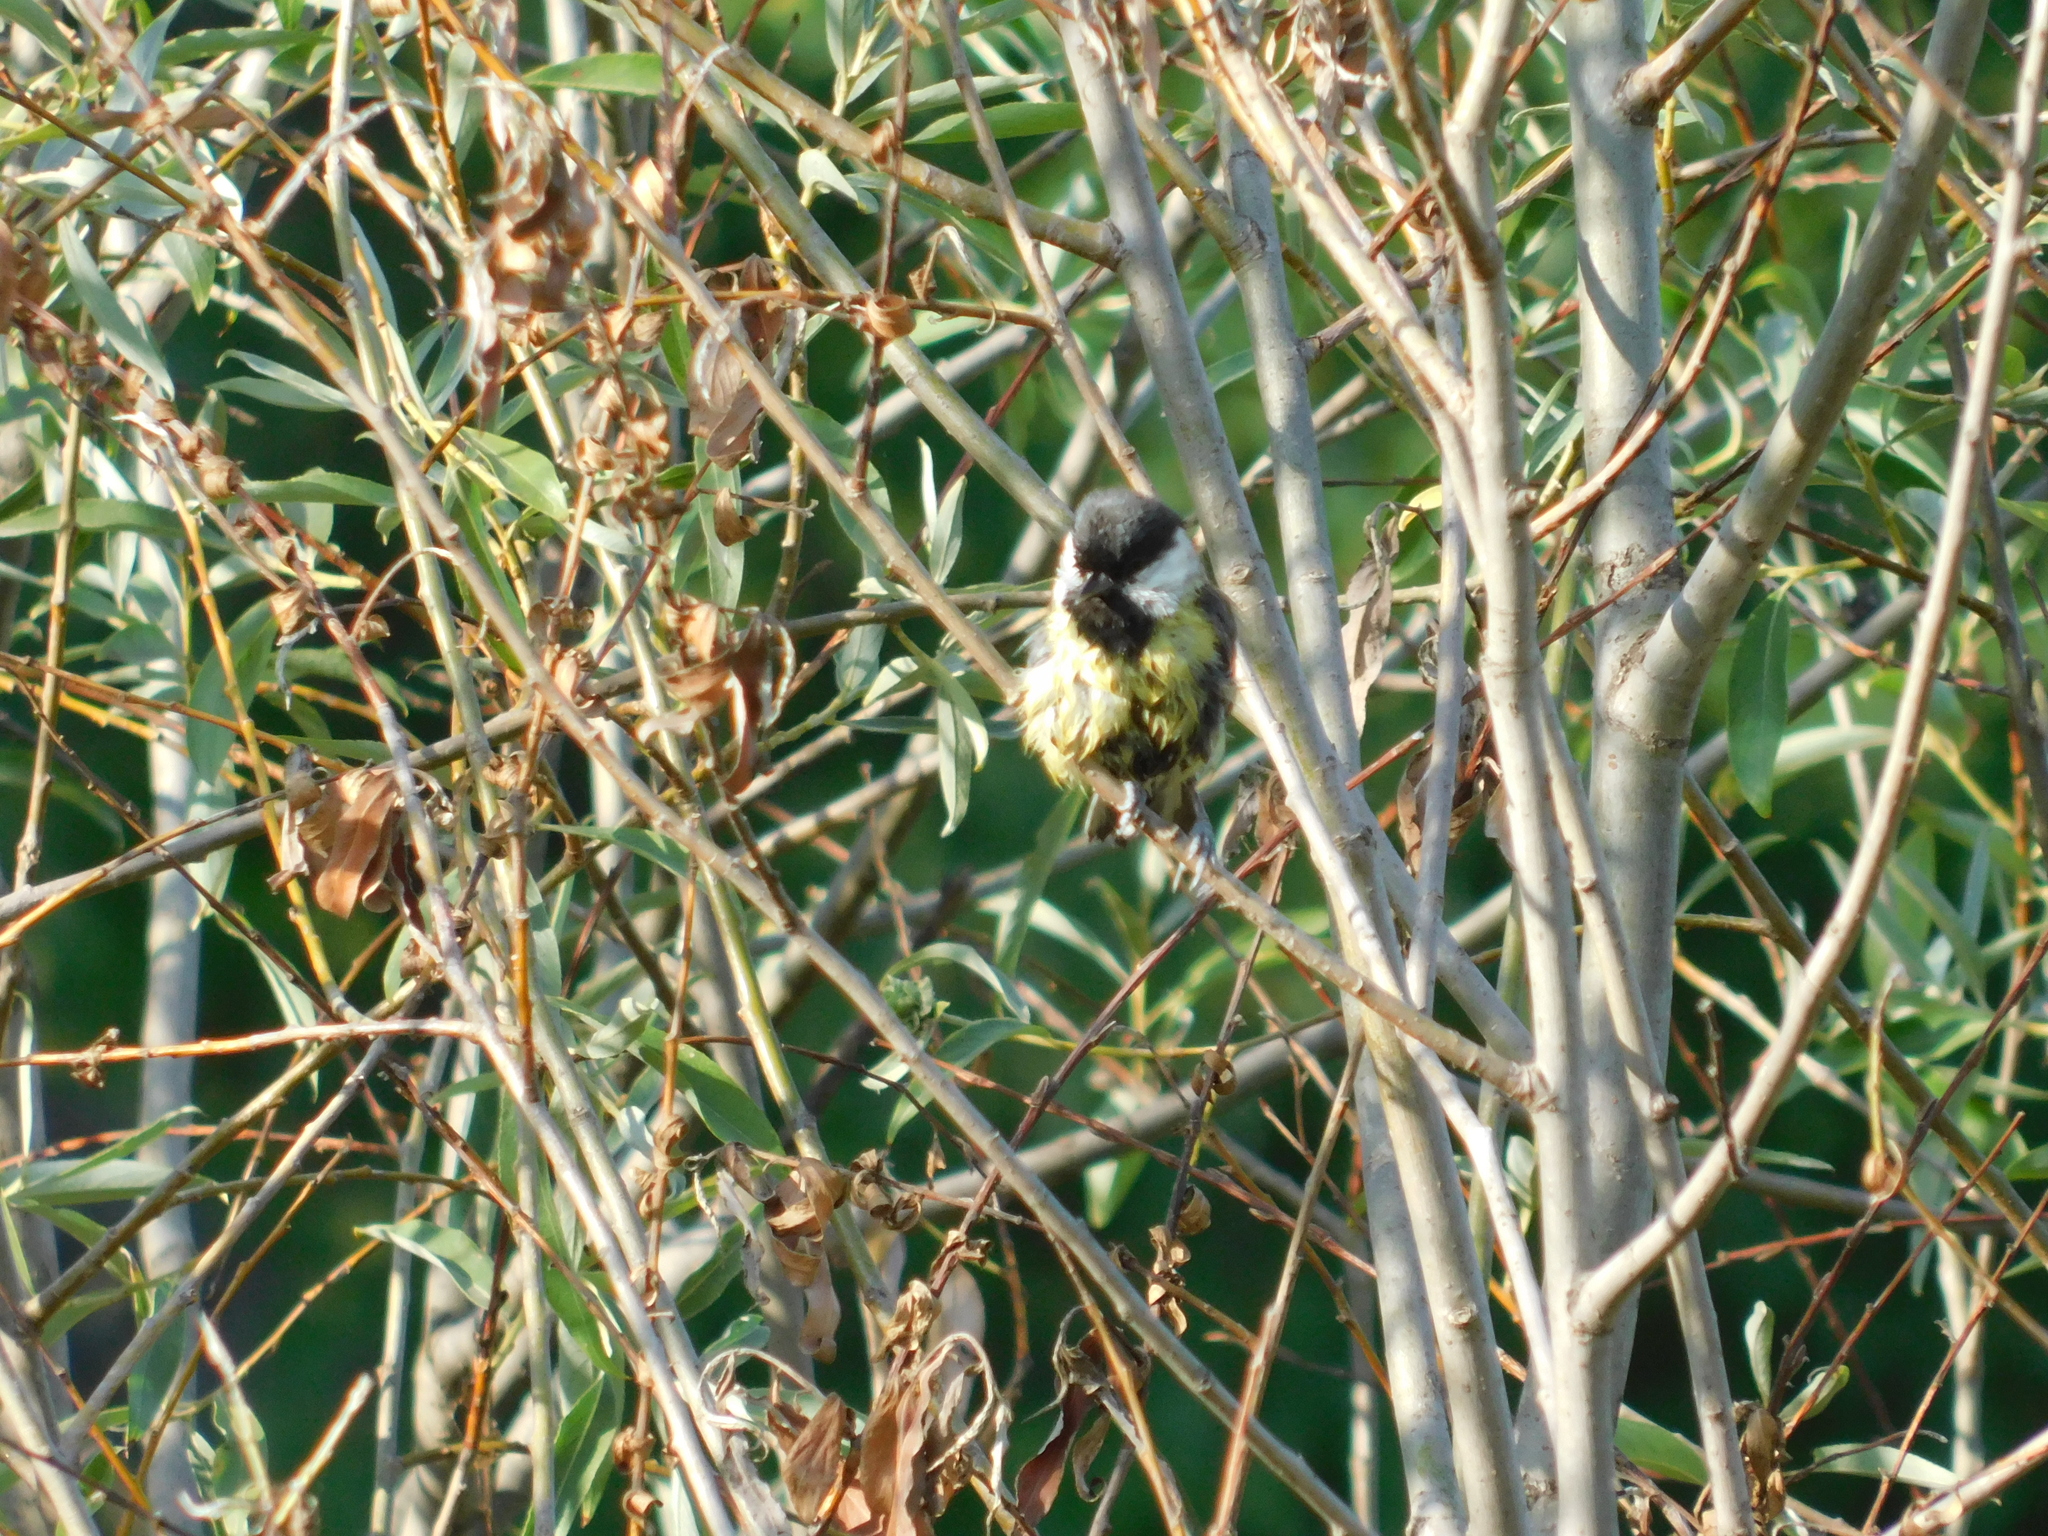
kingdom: Animalia
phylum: Chordata
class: Aves
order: Passeriformes
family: Paridae
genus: Parus
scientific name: Parus major
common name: Great tit
